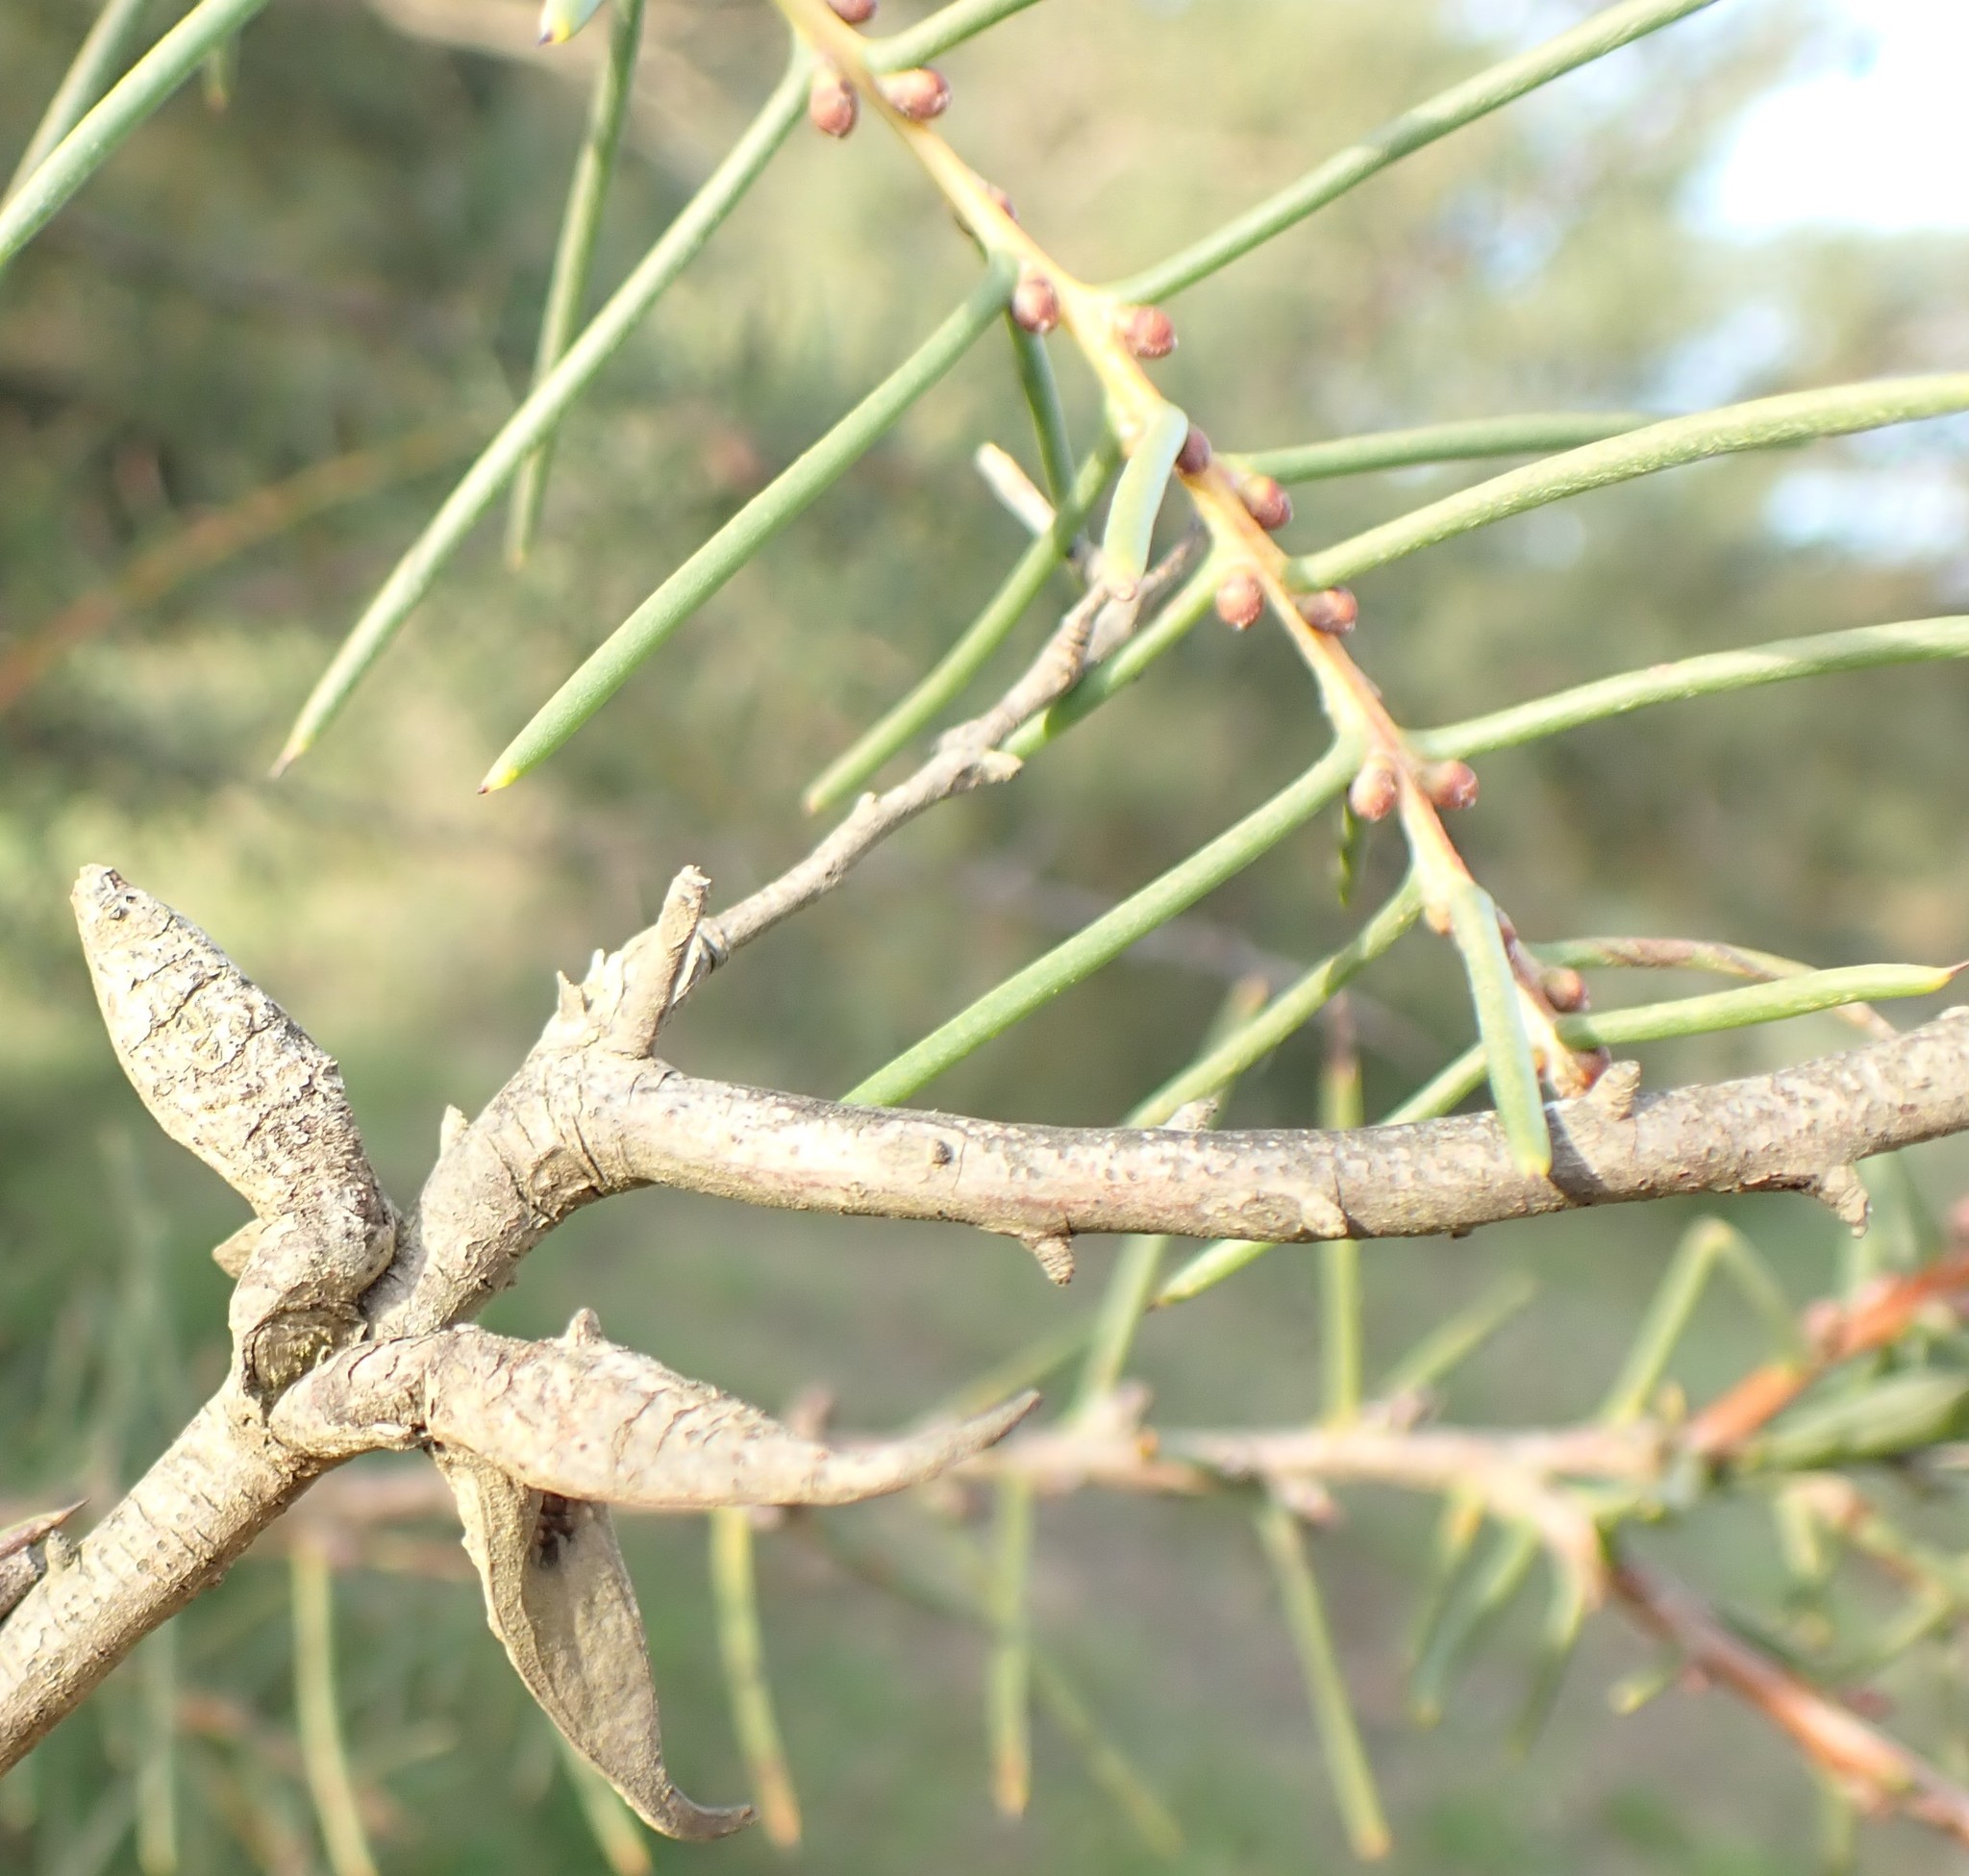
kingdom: Plantae
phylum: Tracheophyta
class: Magnoliopsida
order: Proteales
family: Proteaceae
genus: Hakea
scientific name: Hakea teretifolia
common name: Dagger hakea
